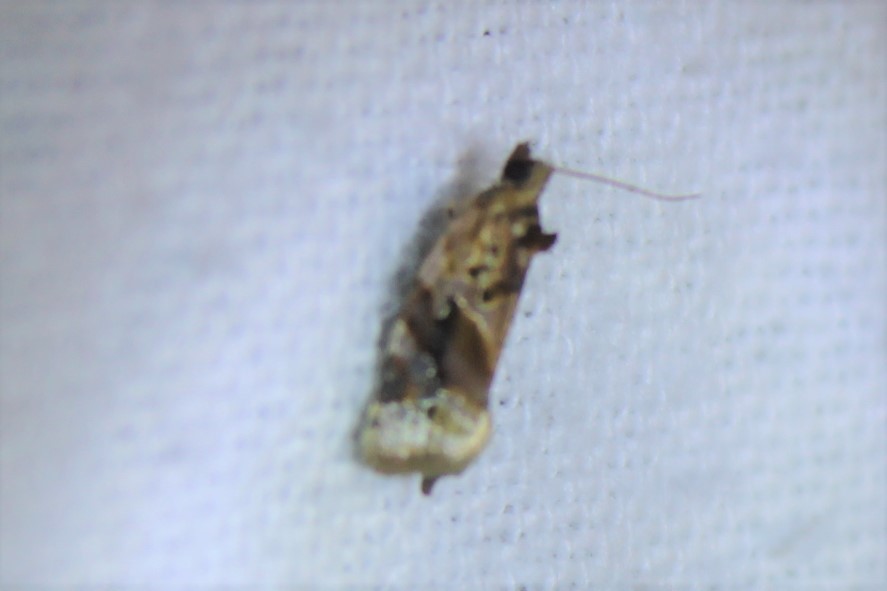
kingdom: Animalia
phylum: Arthropoda
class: Insecta
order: Lepidoptera
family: Tortricidae
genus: Argyrotaenia
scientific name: Argyrotaenia velutinana
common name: Red-banded leafroller moth
